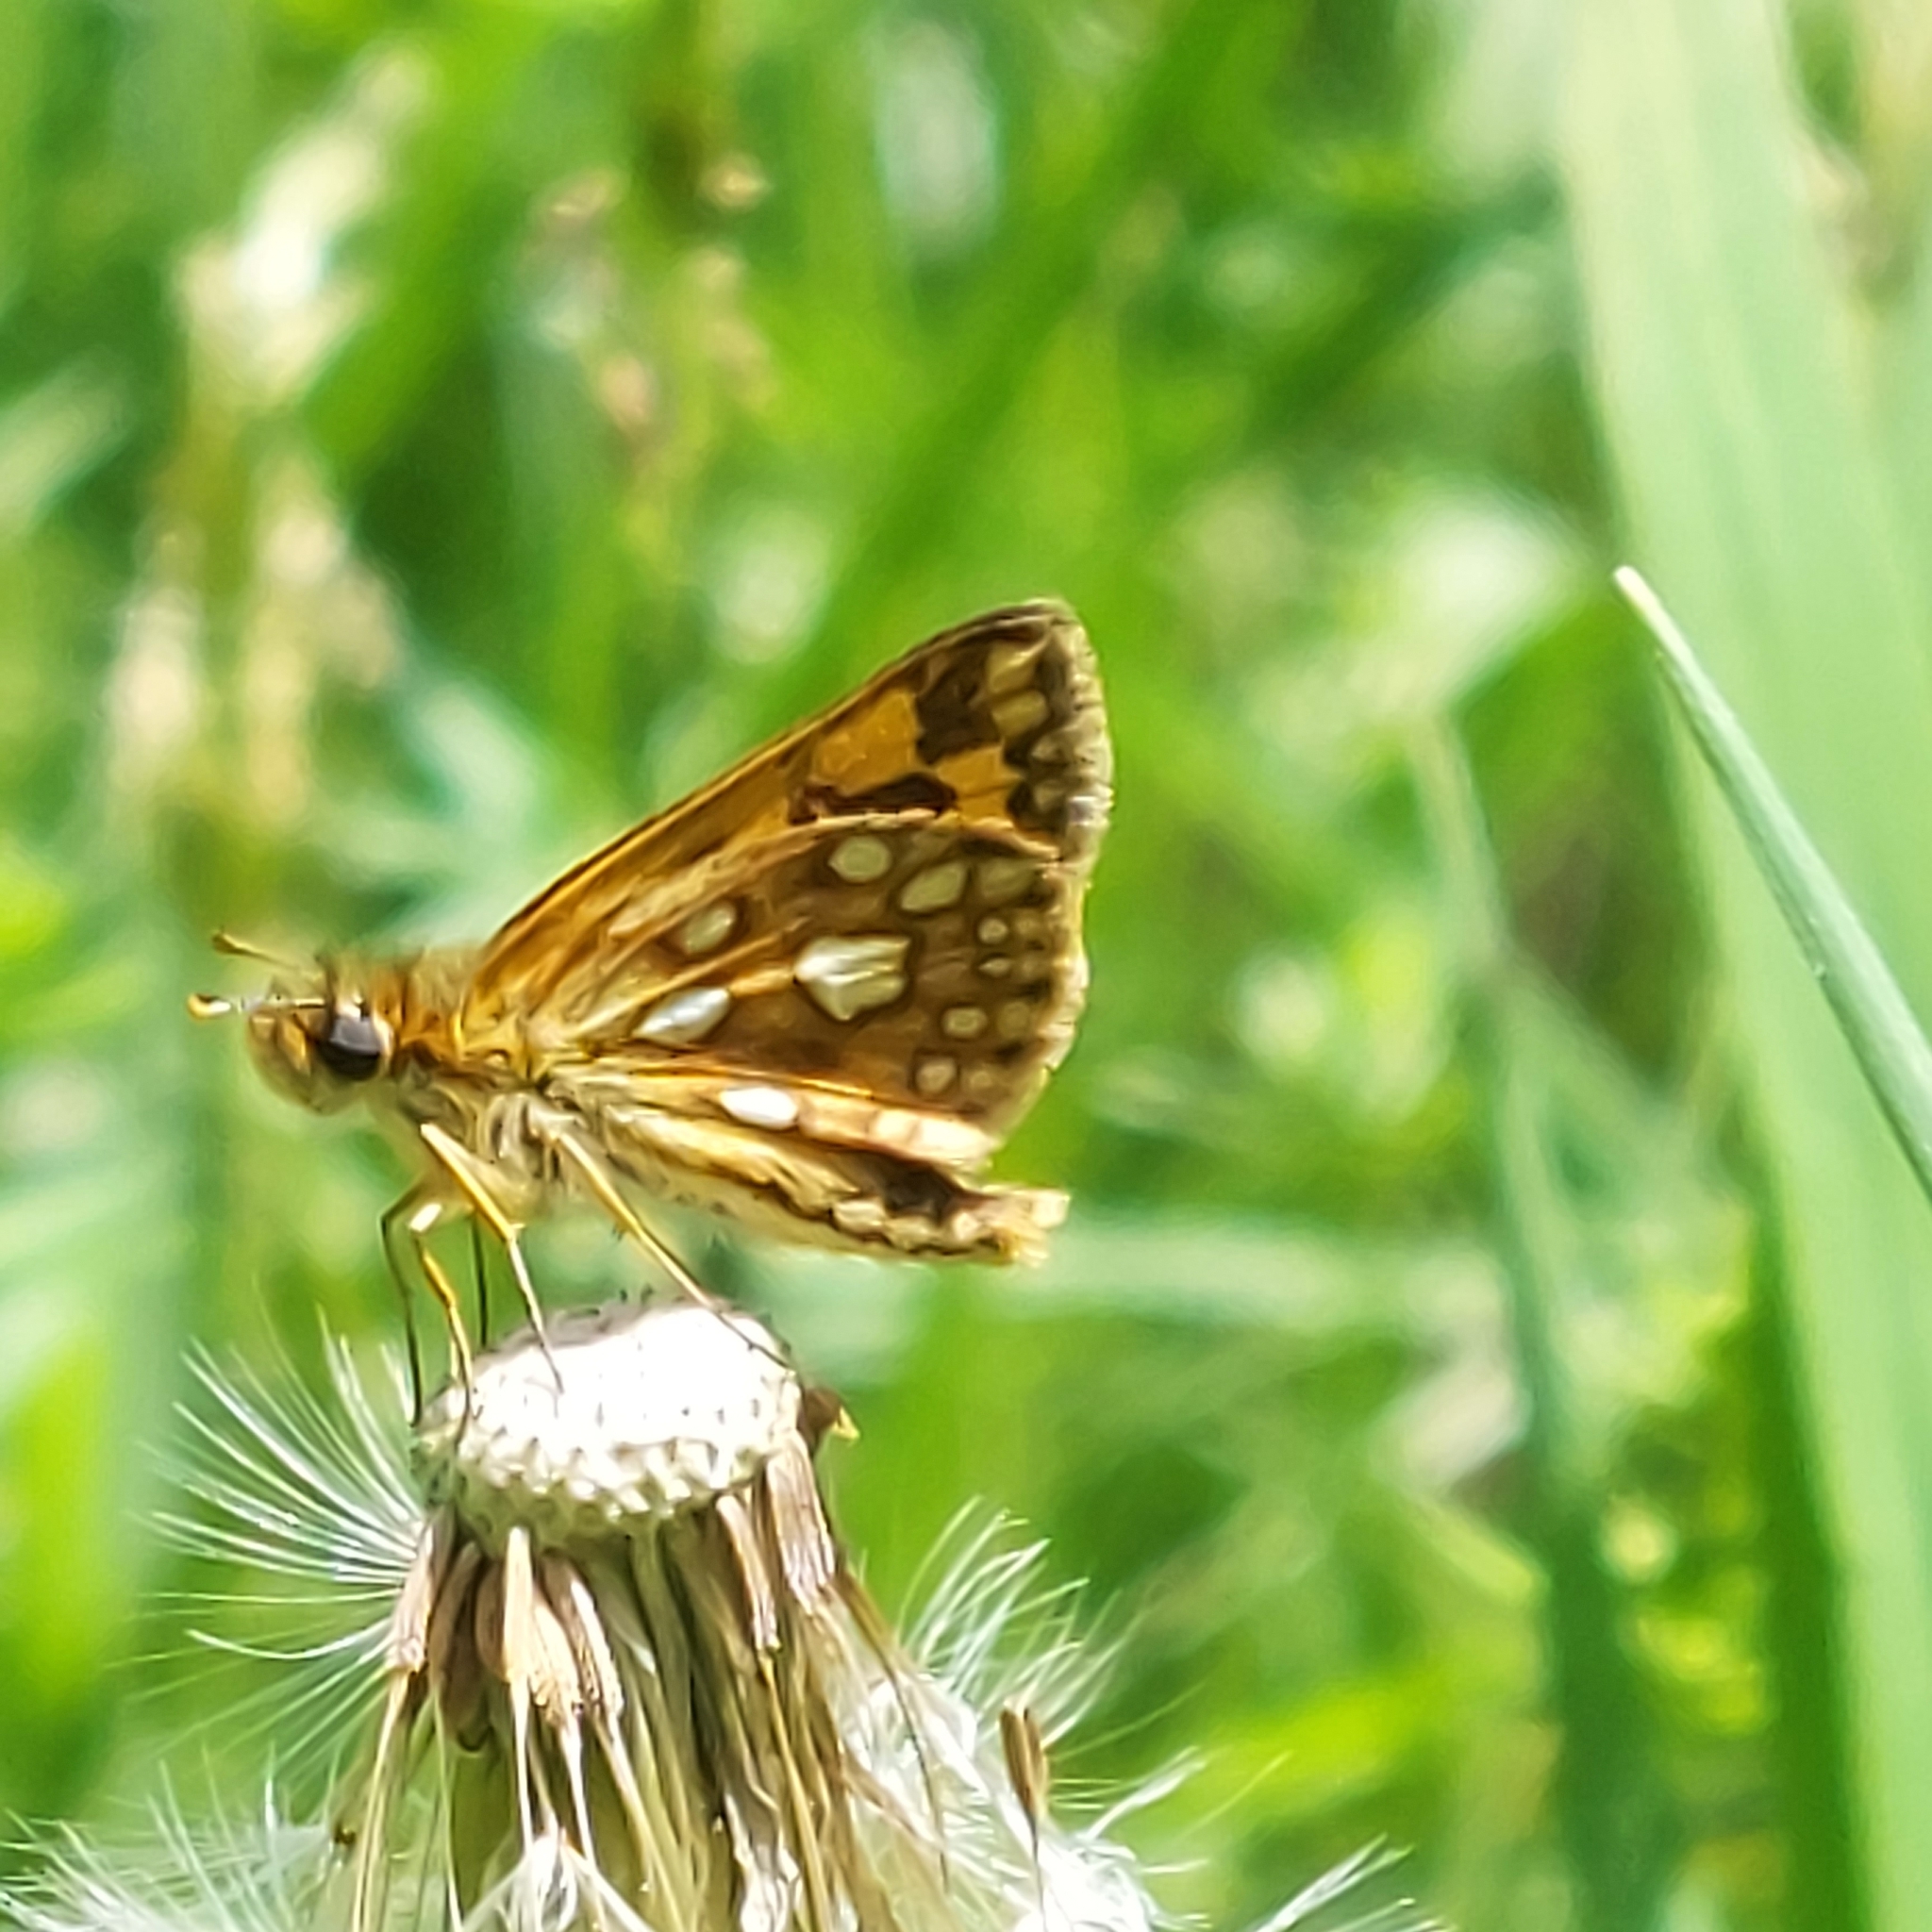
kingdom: Animalia
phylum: Arthropoda
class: Insecta
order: Lepidoptera
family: Hesperiidae
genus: Carterocephalus
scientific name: Carterocephalus mandan
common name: Arctic skipperling
